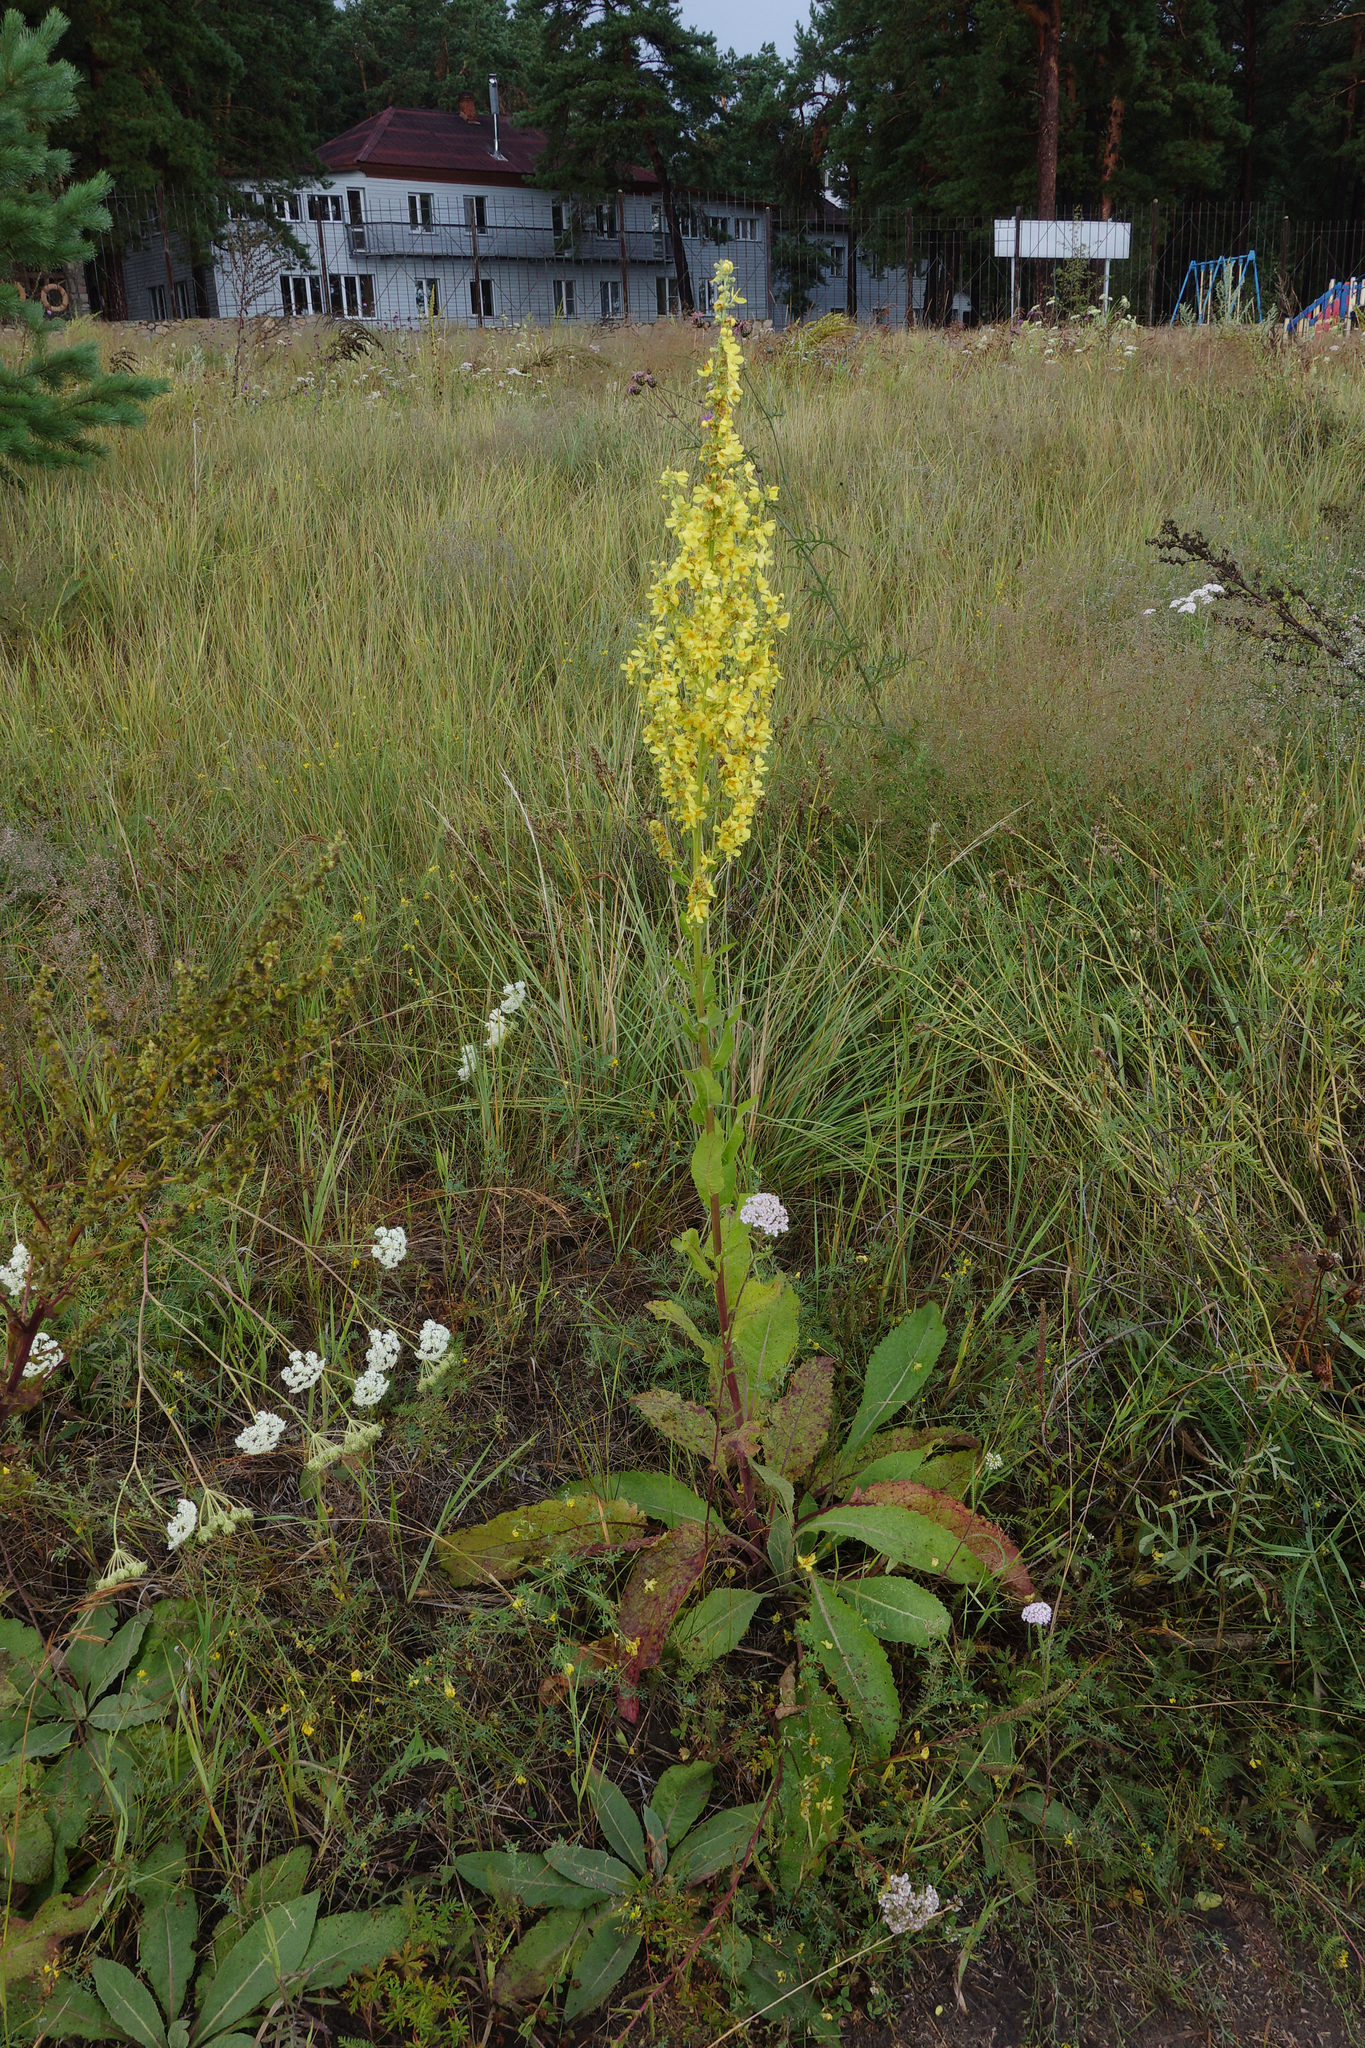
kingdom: Plantae
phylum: Tracheophyta
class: Magnoliopsida
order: Lamiales
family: Scrophulariaceae
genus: Verbascum
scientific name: Verbascum lychnitis
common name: White mullein
